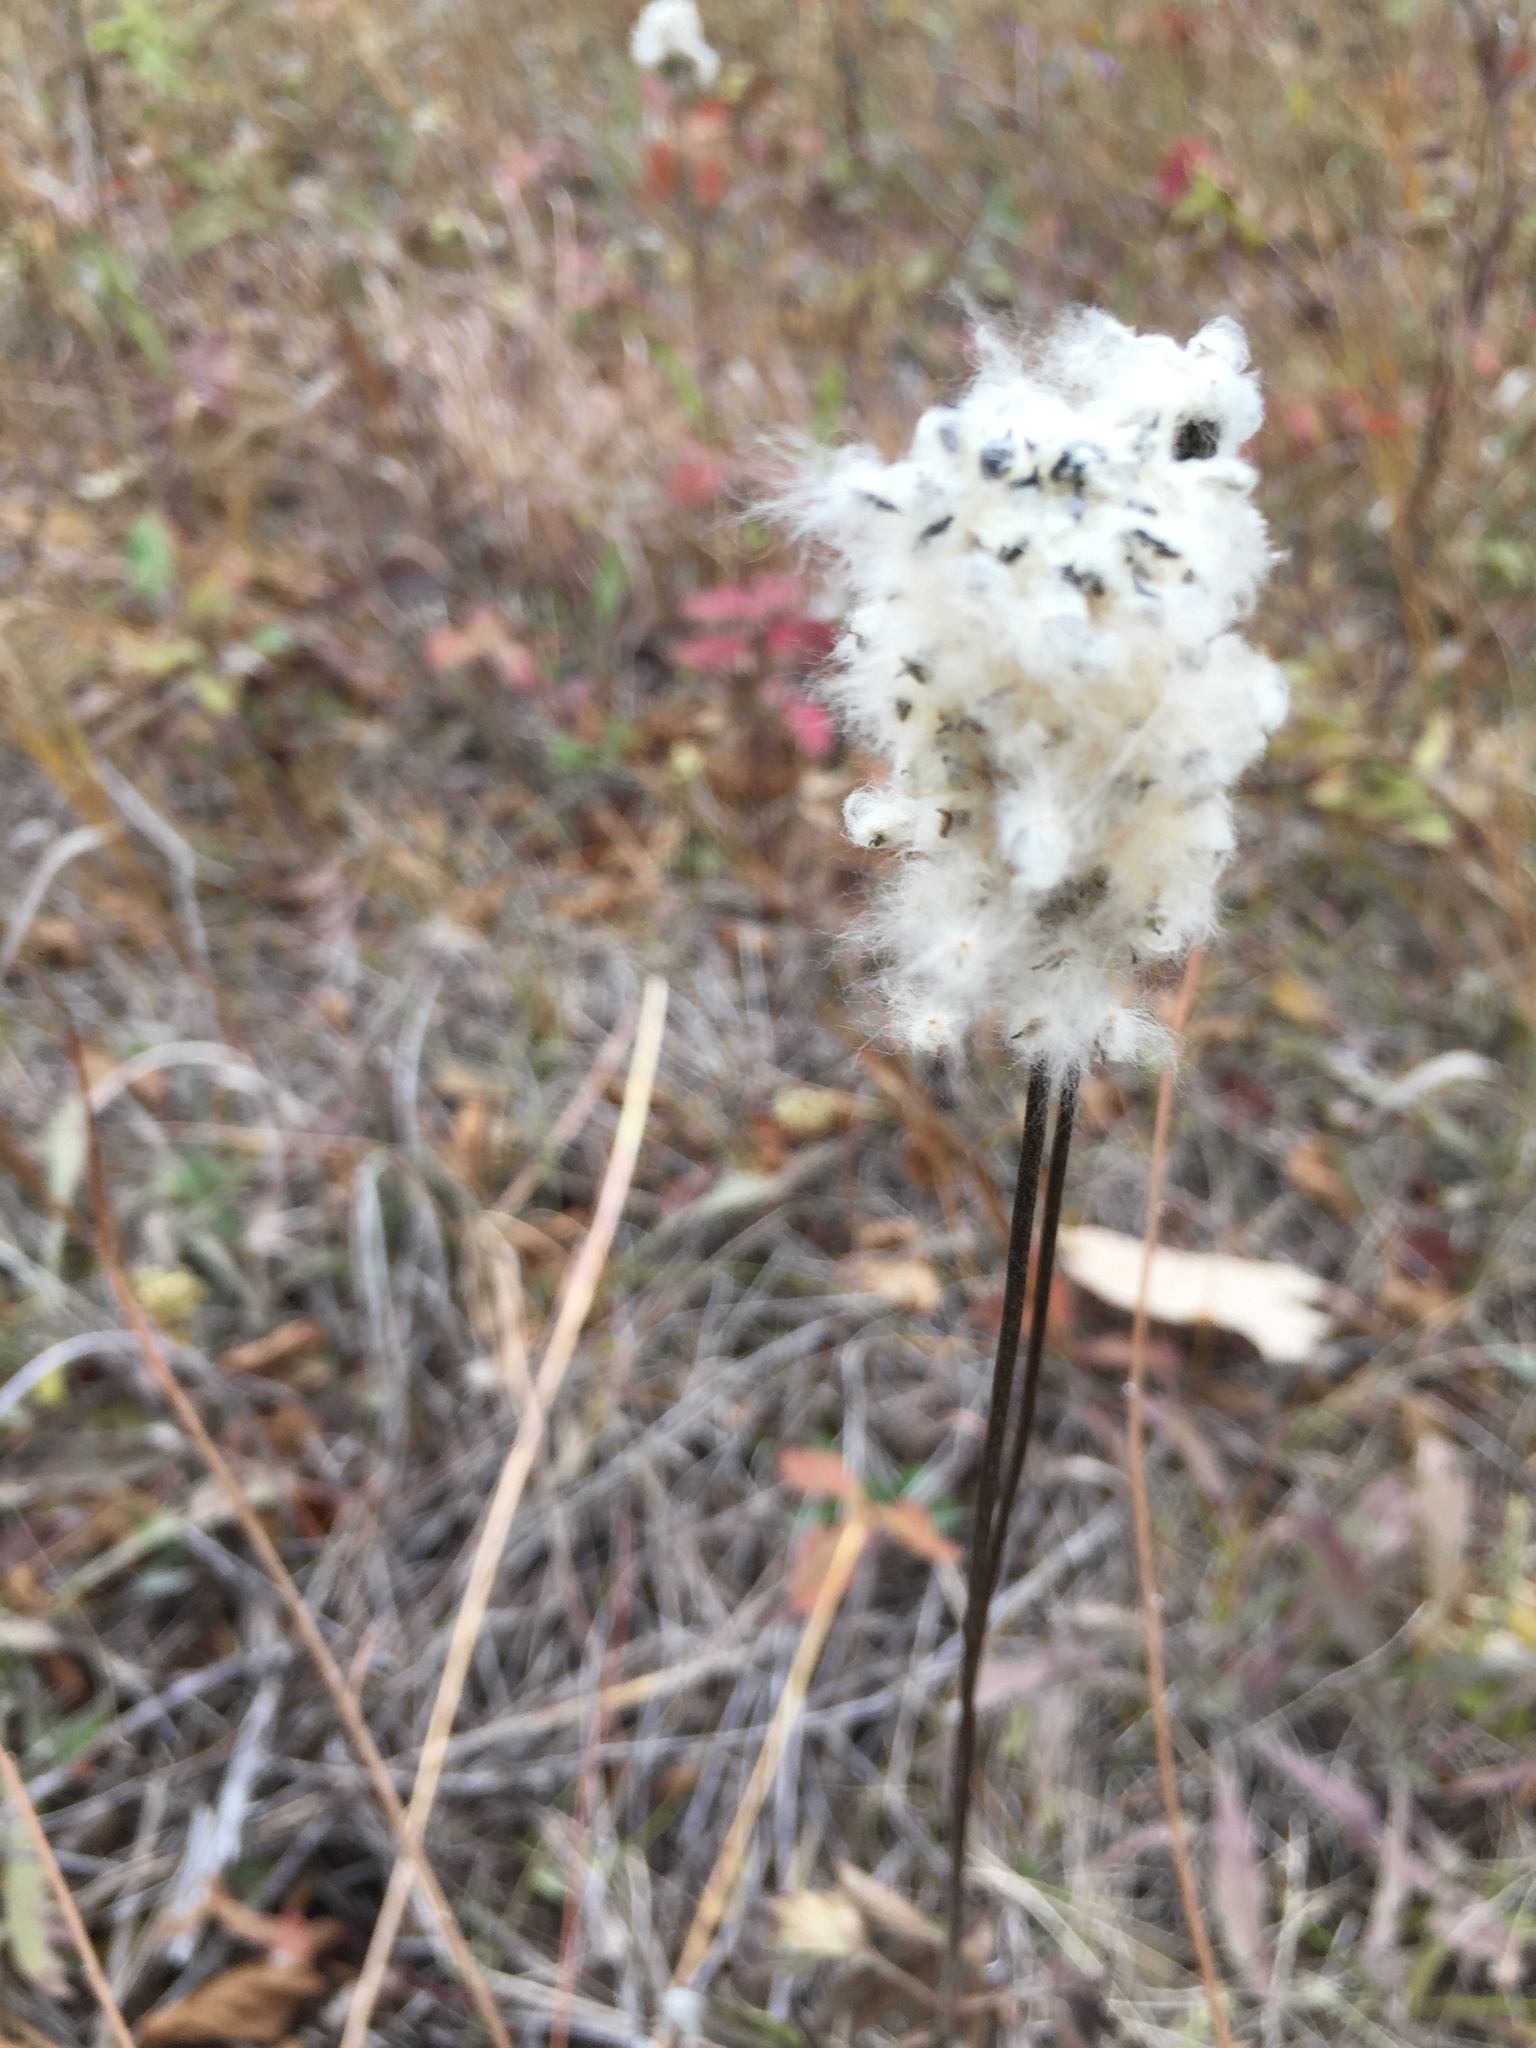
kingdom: Plantae
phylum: Tracheophyta
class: Magnoliopsida
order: Ranunculales
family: Ranunculaceae
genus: Anemone
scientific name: Anemone cylindrica
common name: Candle anemone
